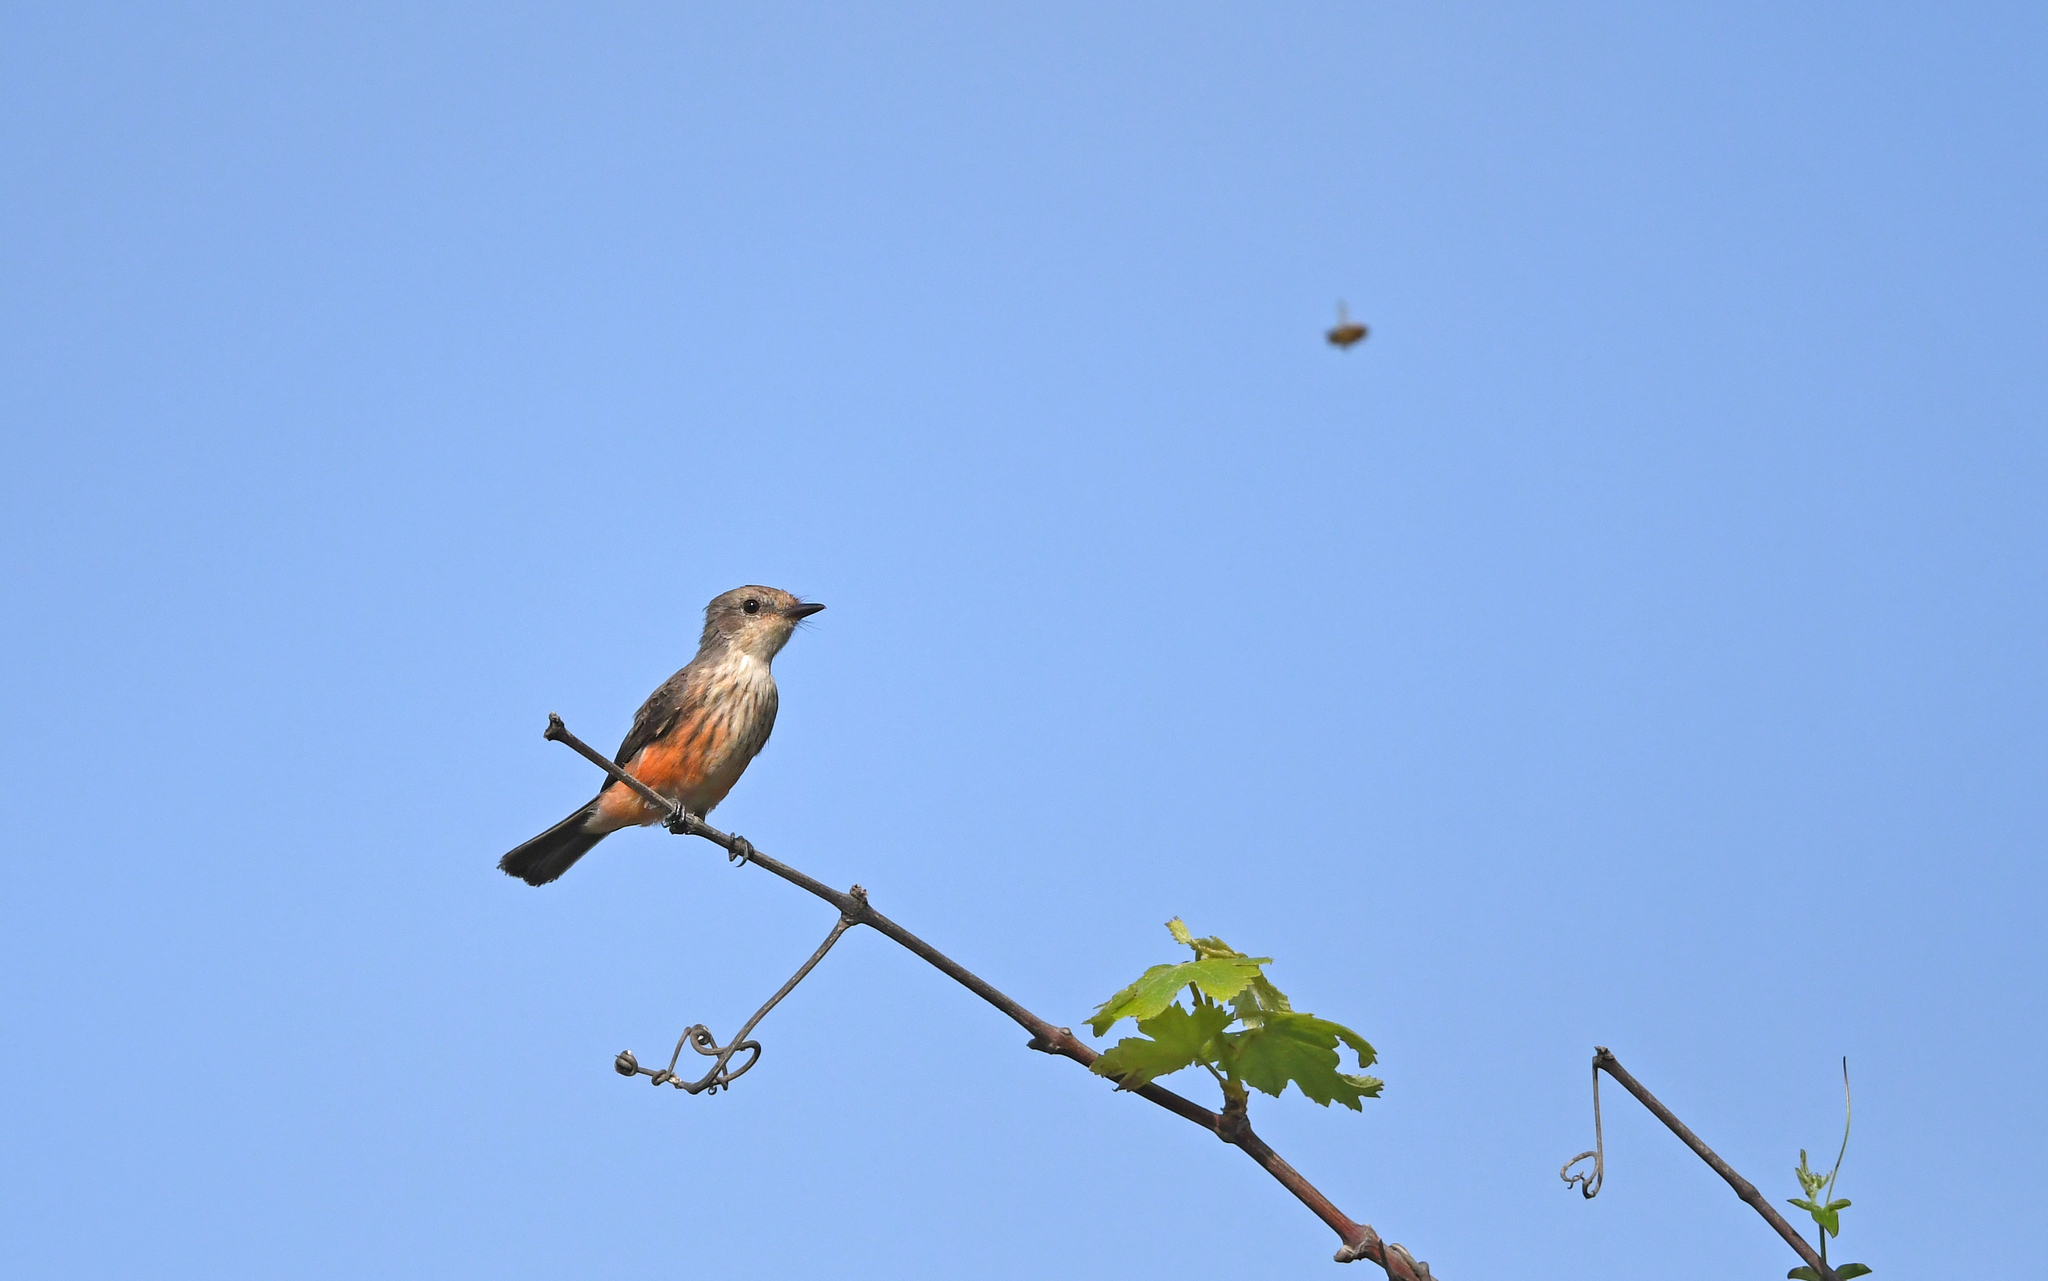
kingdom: Animalia
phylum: Chordata
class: Aves
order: Passeriformes
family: Tyrannidae
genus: Pyrocephalus
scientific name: Pyrocephalus rubinus
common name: Vermilion flycatcher
